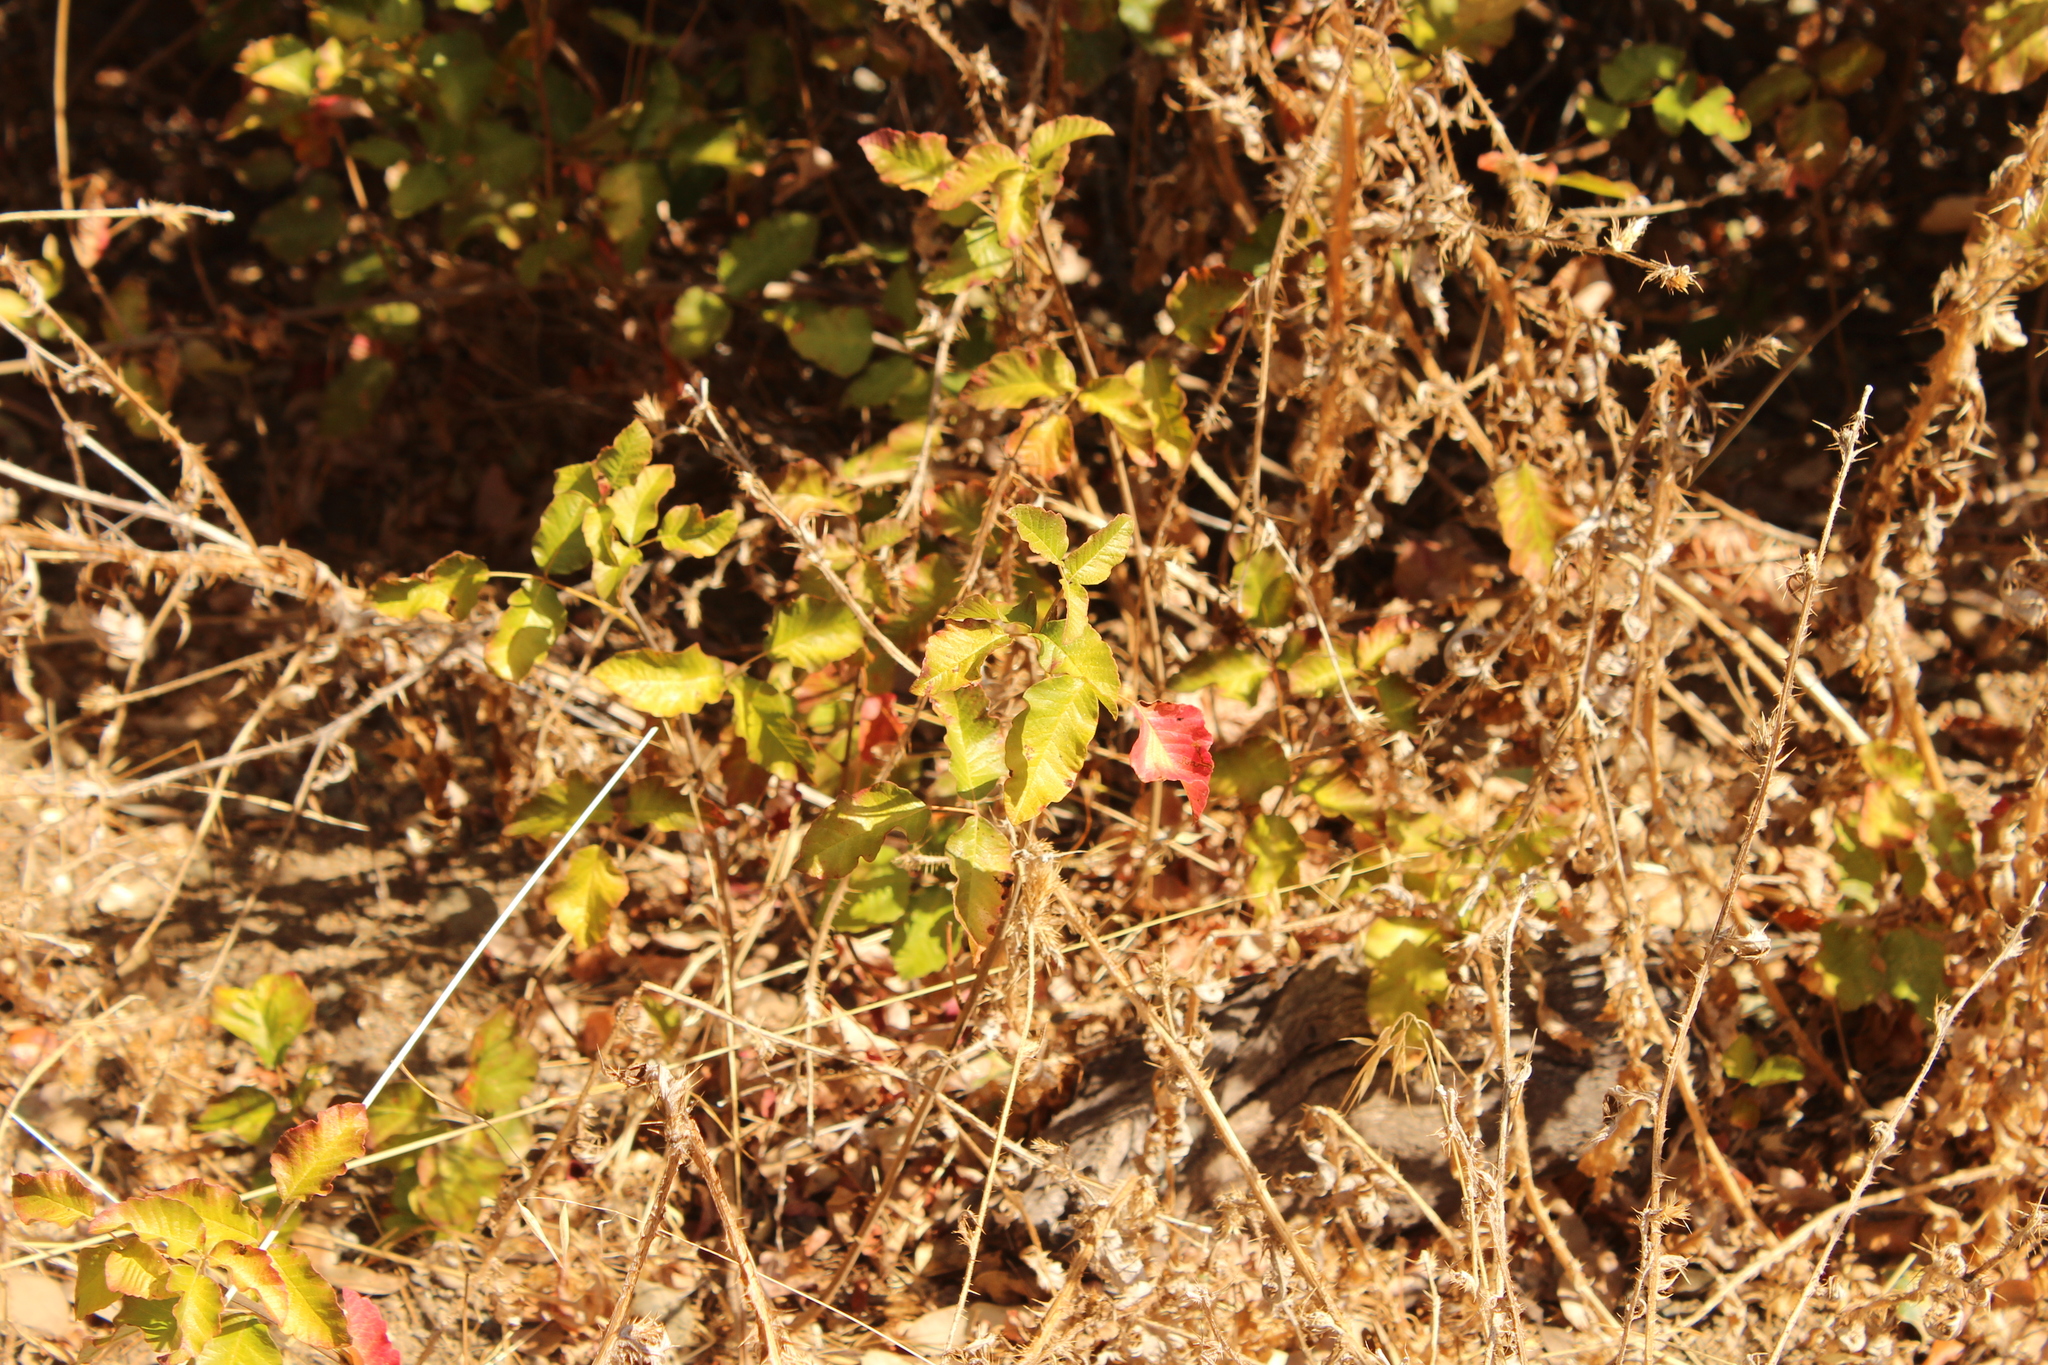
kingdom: Plantae
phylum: Tracheophyta
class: Magnoliopsida
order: Sapindales
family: Anacardiaceae
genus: Toxicodendron
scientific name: Toxicodendron diversilobum
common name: Pacific poison-oak
